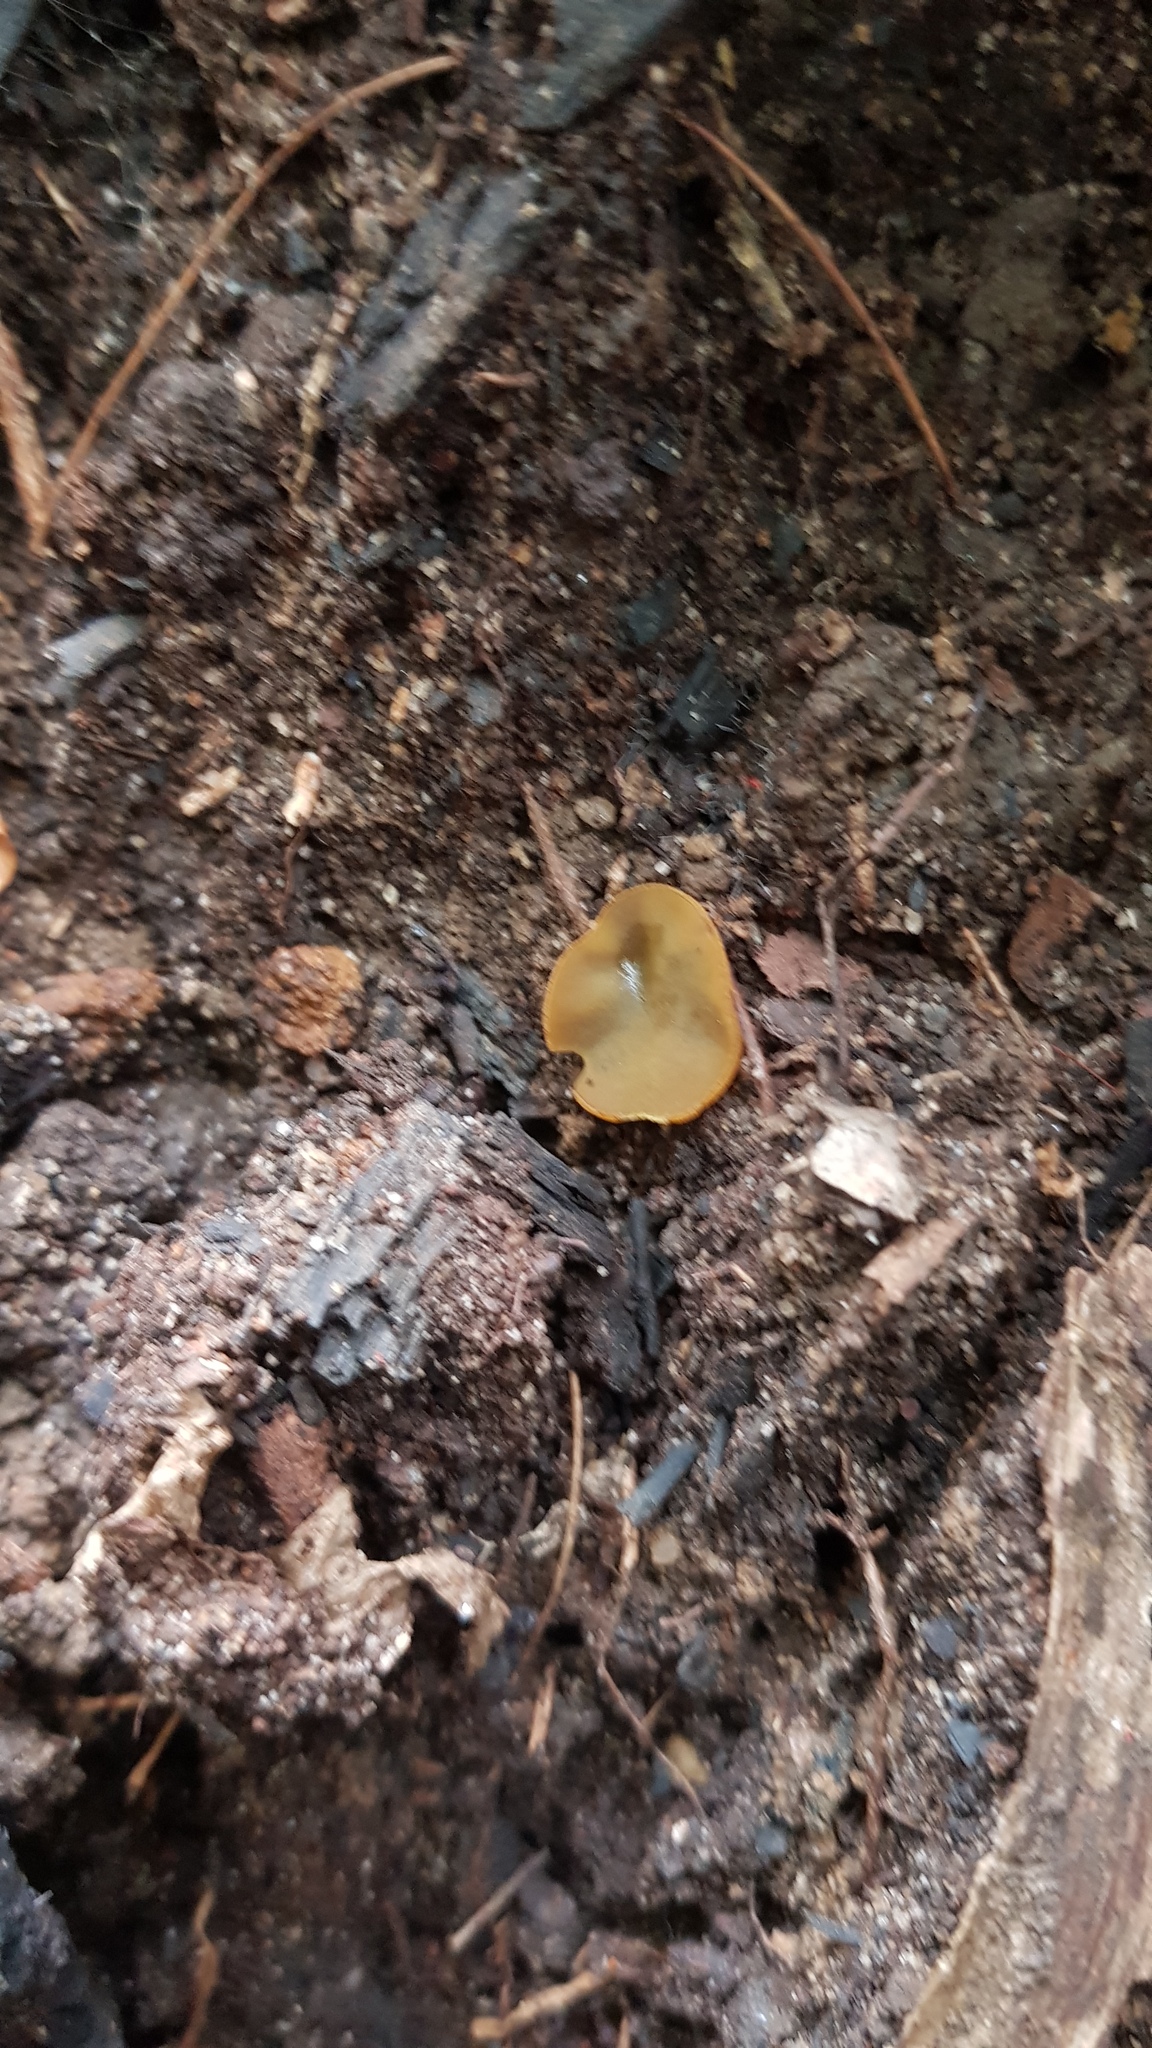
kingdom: Fungi
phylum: Ascomycota
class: Pezizomycetes
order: Pezizales
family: Pyronemataceae
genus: Aleurina
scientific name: Aleurina ferruginea
